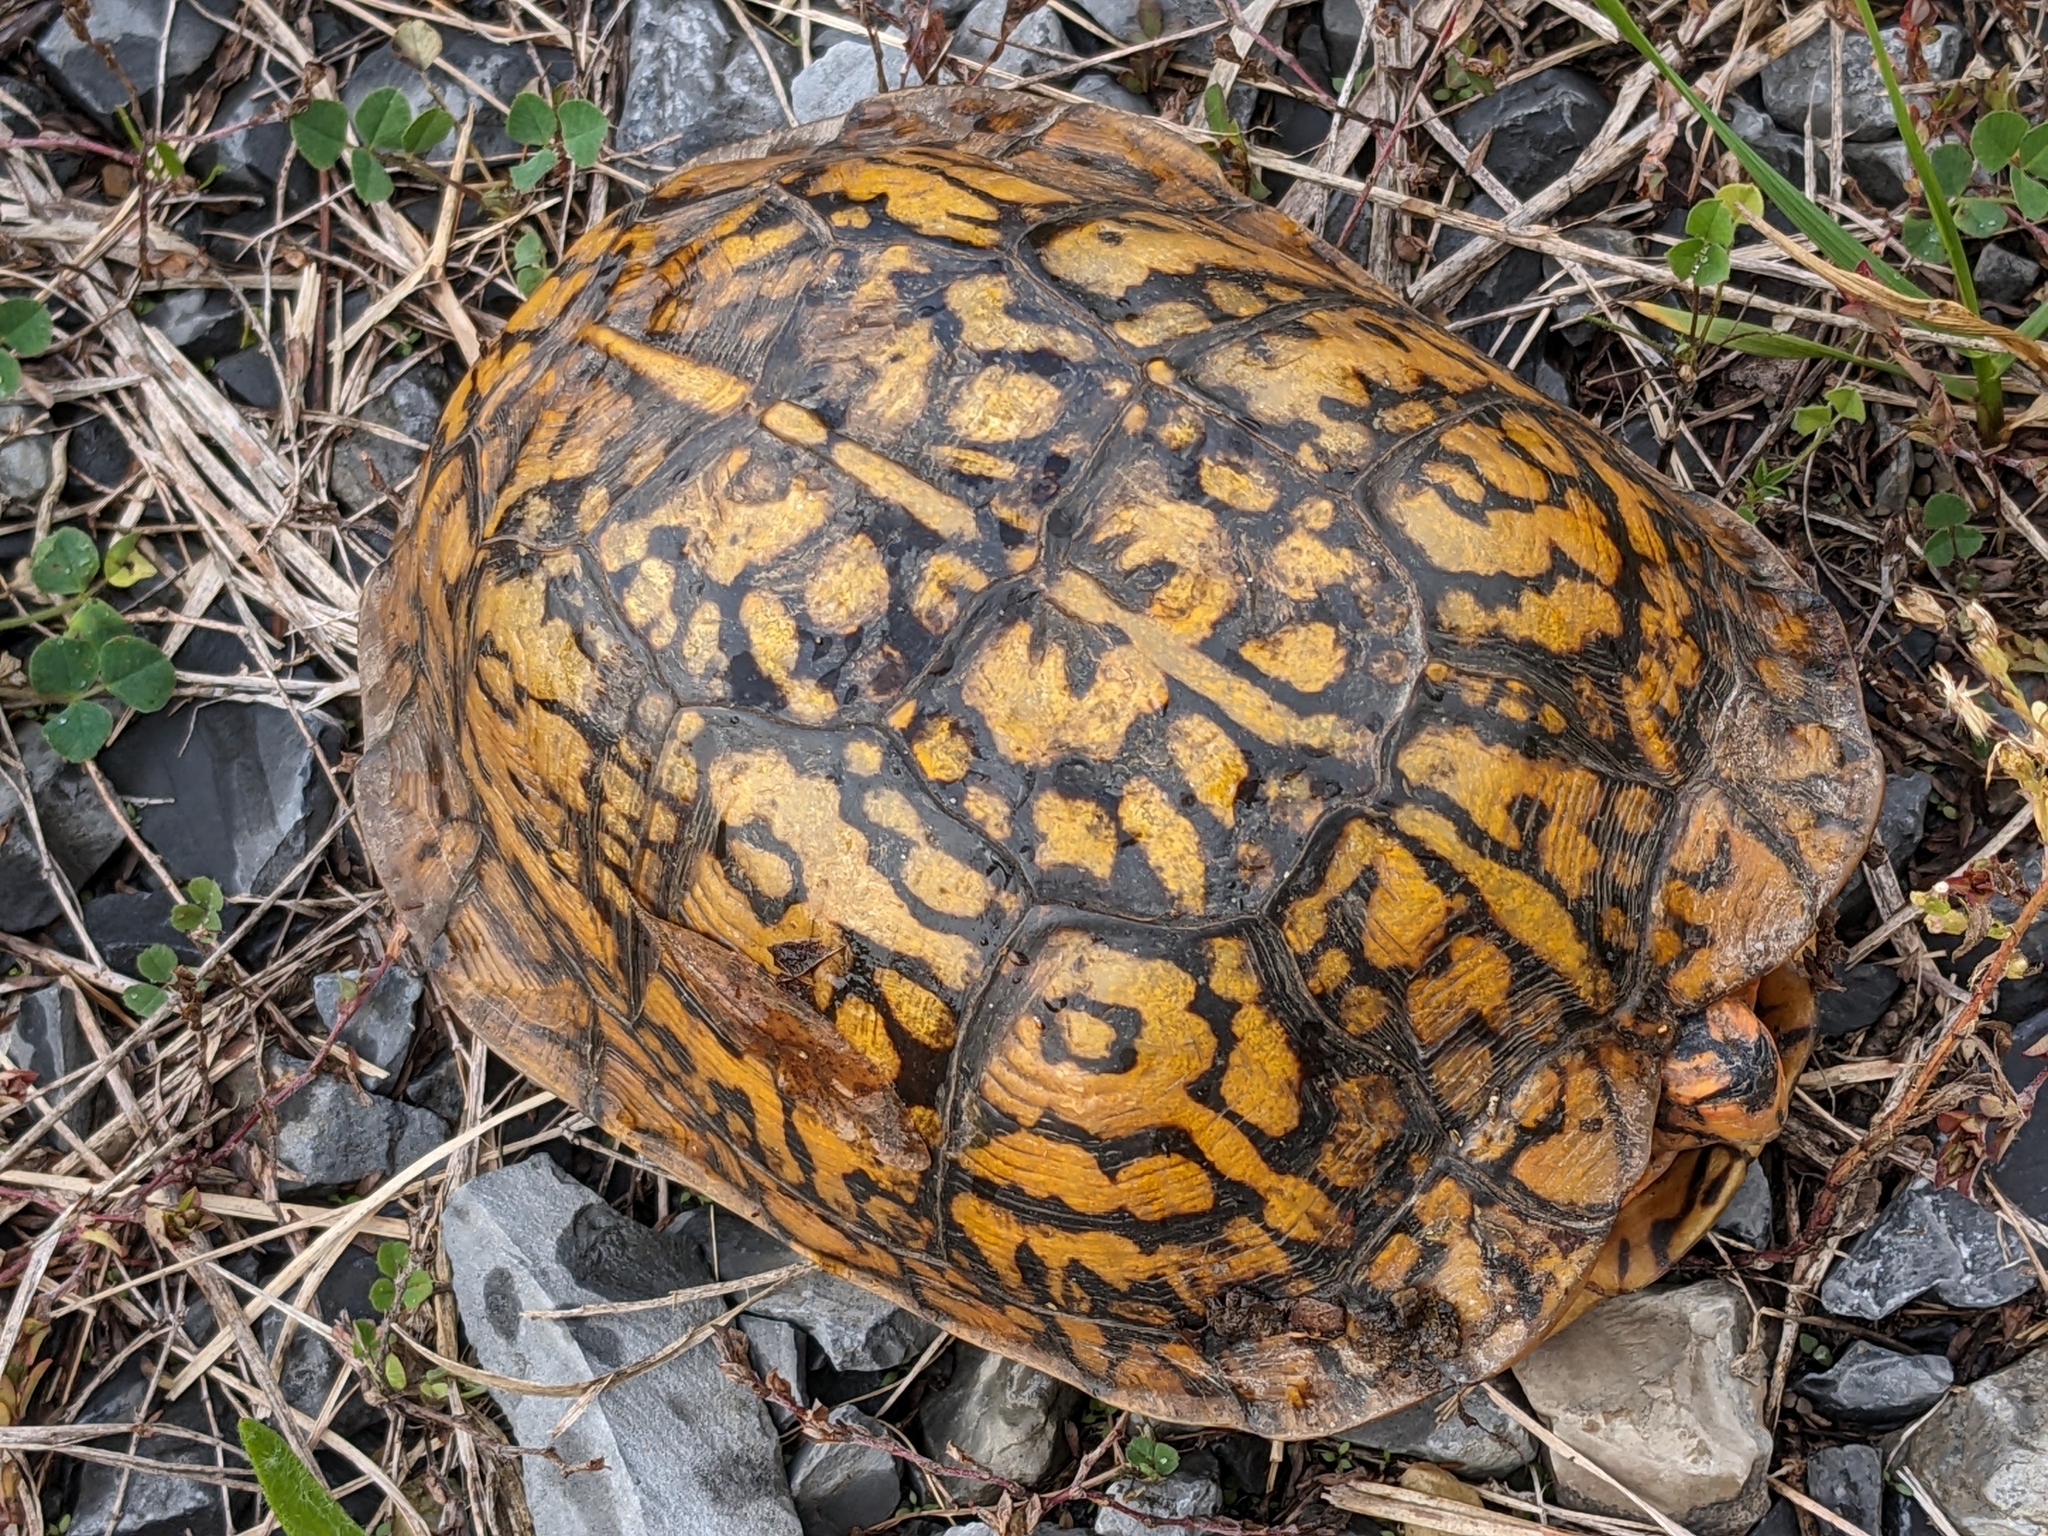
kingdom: Animalia
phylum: Chordata
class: Testudines
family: Emydidae
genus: Terrapene
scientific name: Terrapene carolina
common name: Common box turtle
